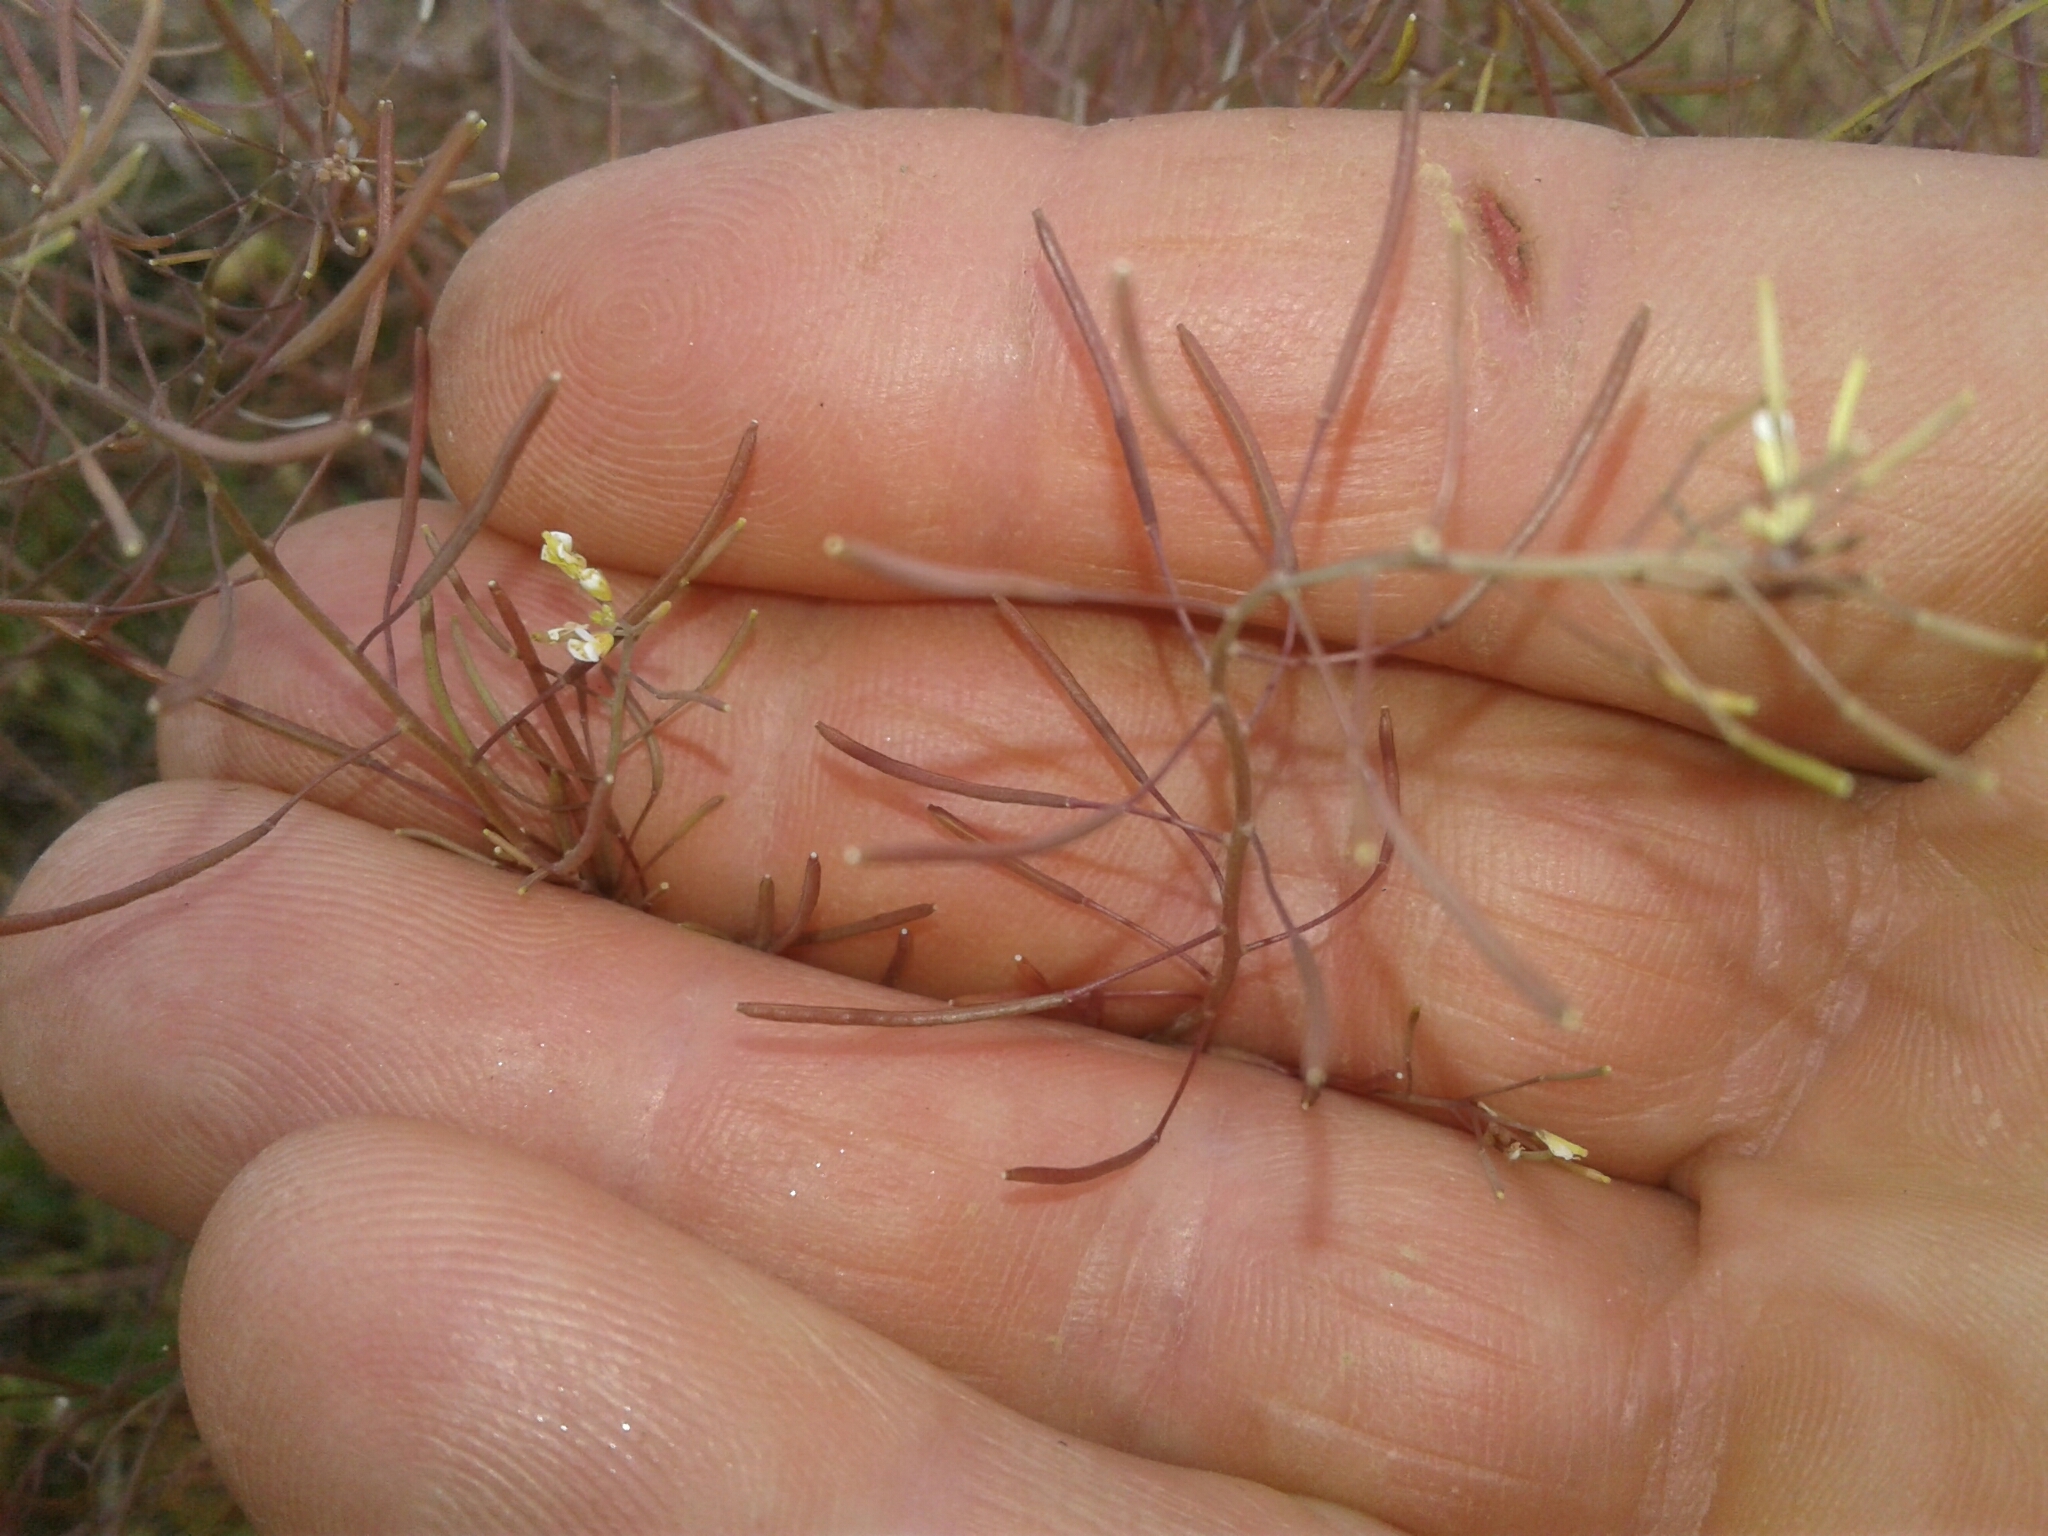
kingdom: Plantae
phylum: Tracheophyta
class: Magnoliopsida
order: Brassicales
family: Brassicaceae
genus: Arabidopsis
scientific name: Arabidopsis thaliana
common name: Thale cress
